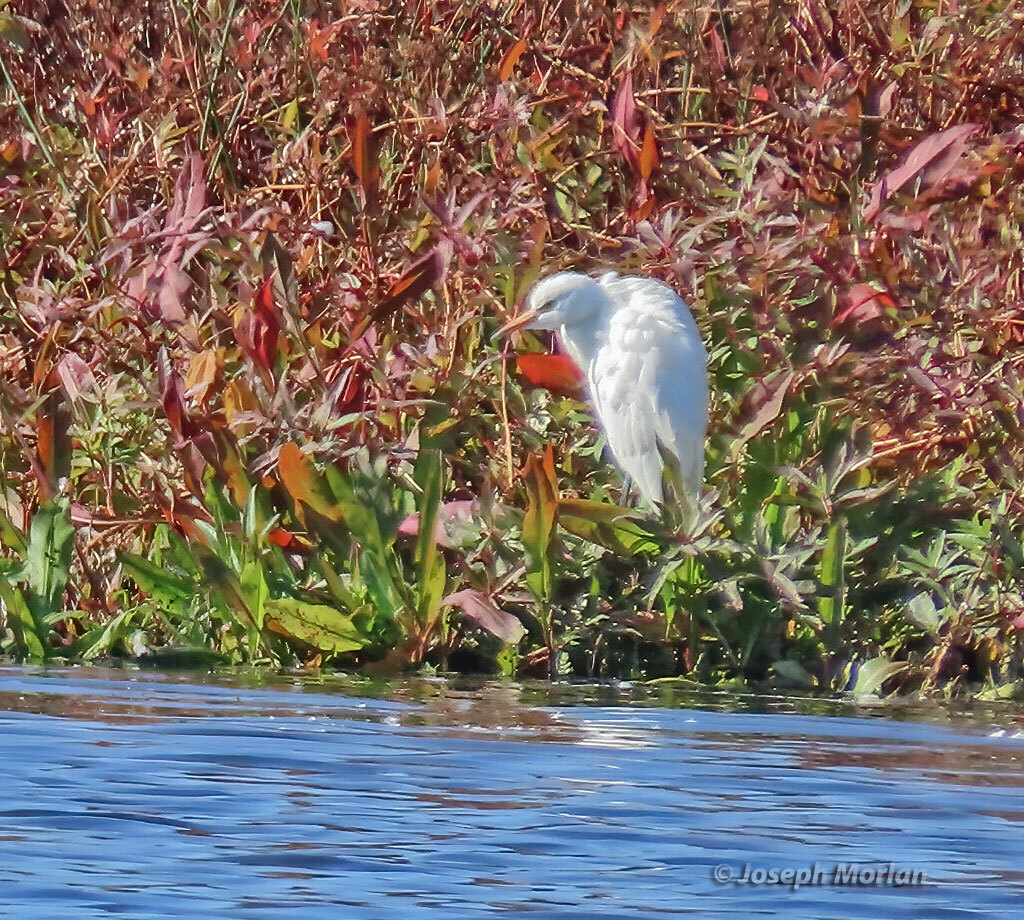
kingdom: Animalia
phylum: Chordata
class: Aves
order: Pelecaniformes
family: Ardeidae
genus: Bubulcus
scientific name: Bubulcus ibis
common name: Cattle egret
